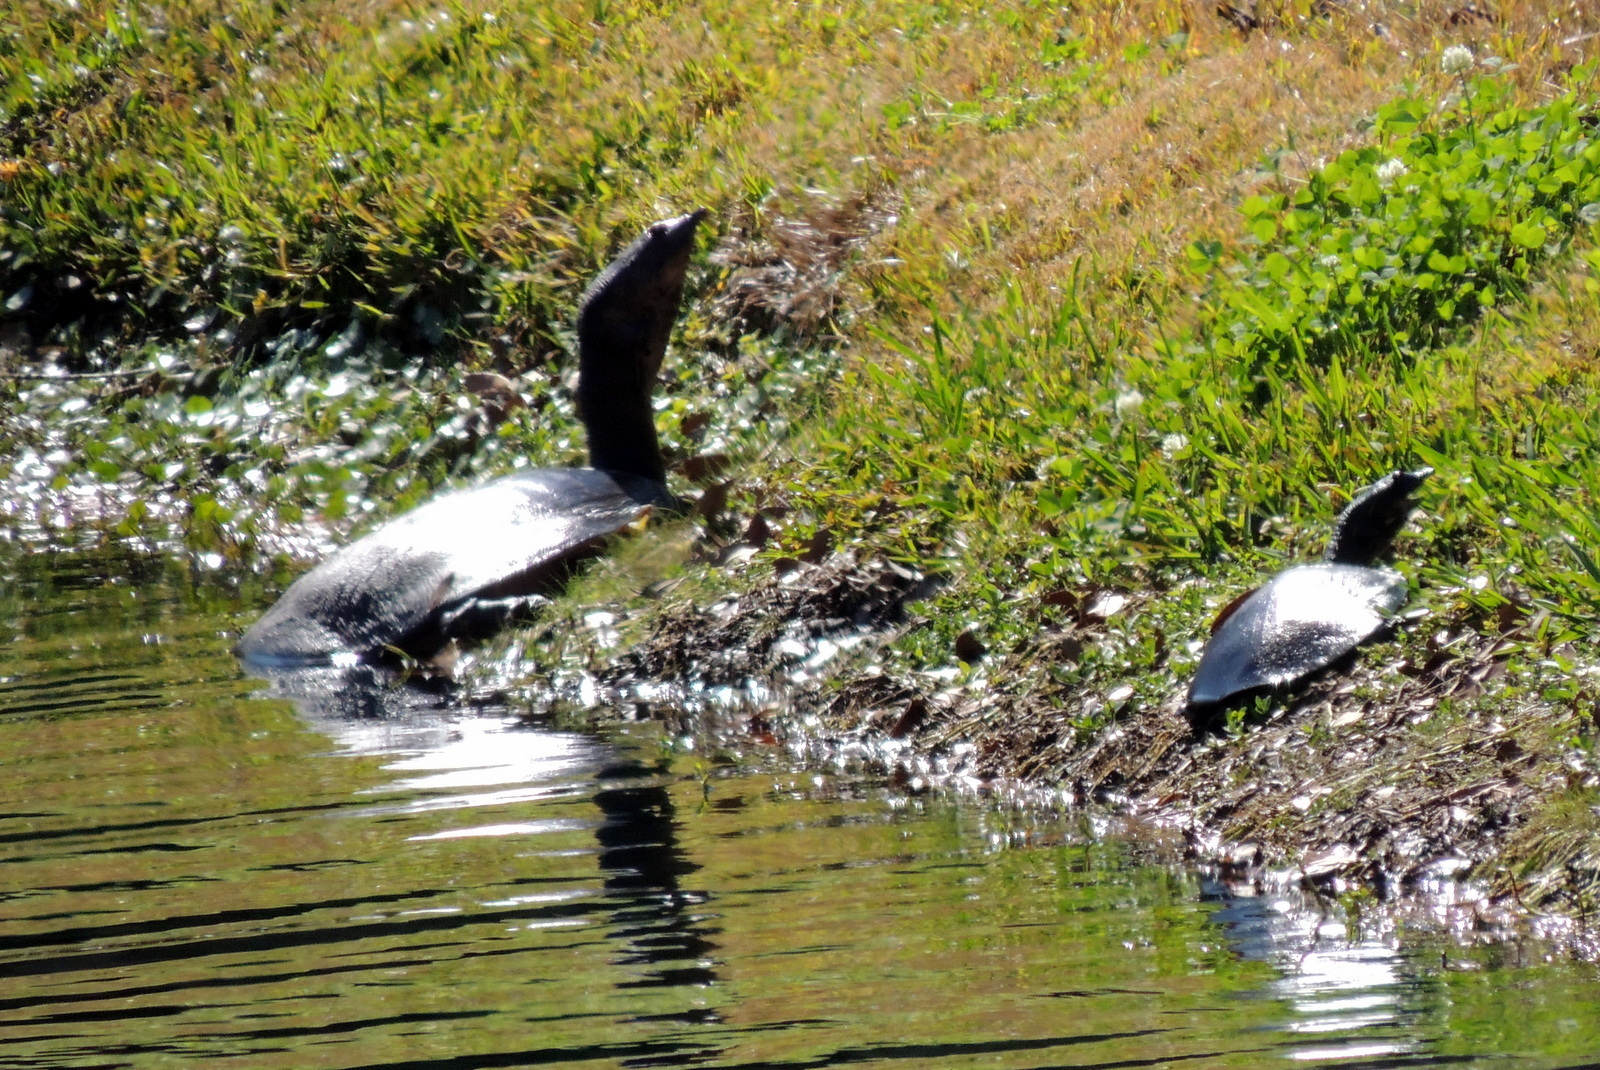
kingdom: Animalia
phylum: Chordata
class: Testudines
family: Trionychidae
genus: Apalone
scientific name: Apalone ferox
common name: Florida softshell turtle
